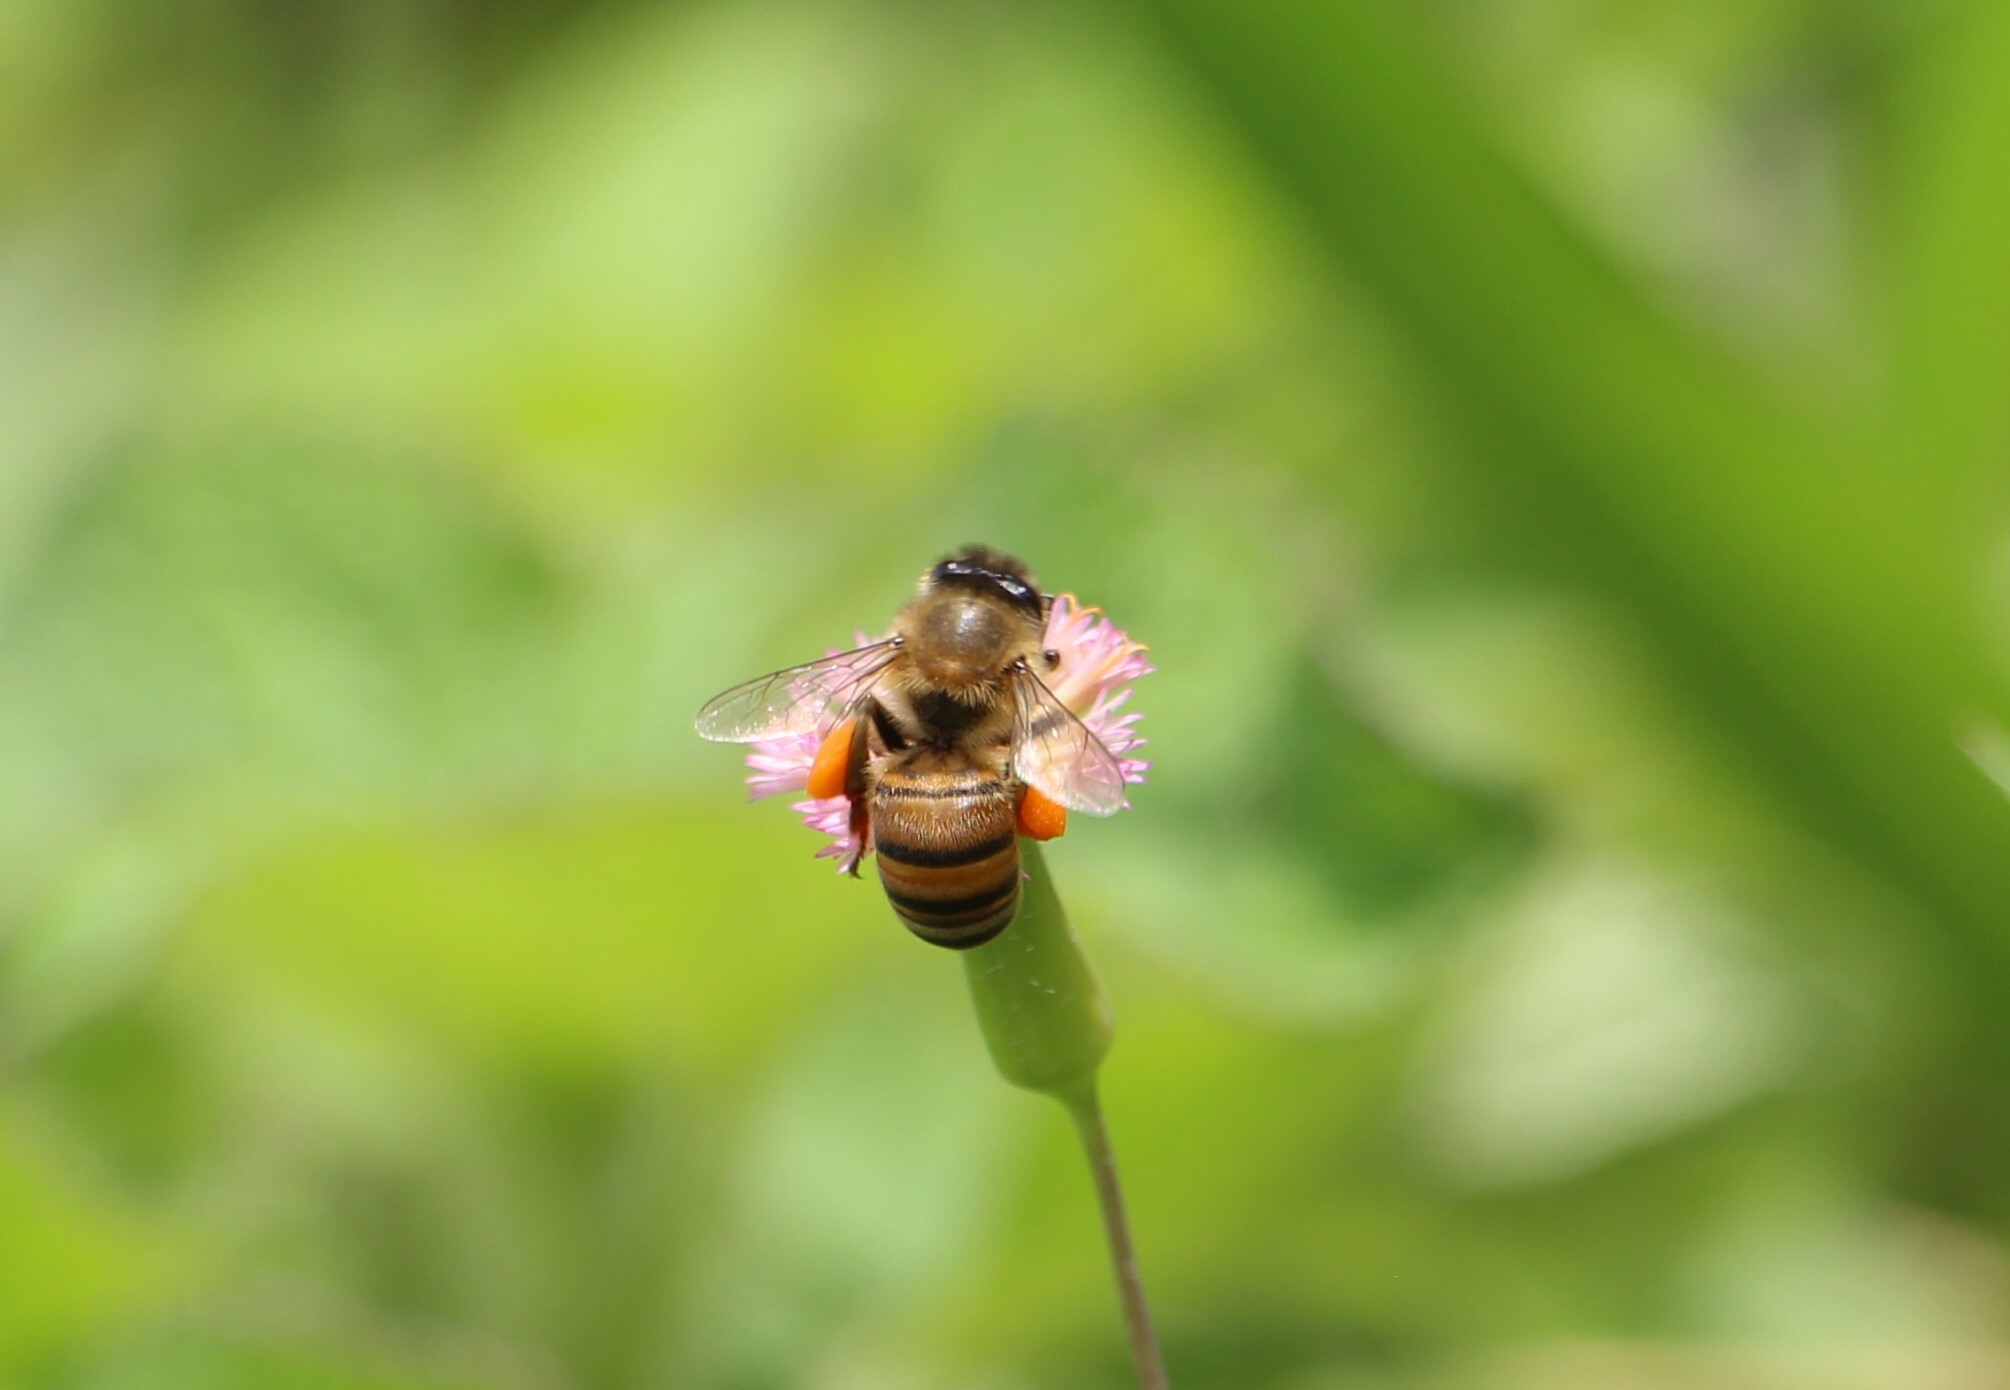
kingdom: Animalia
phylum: Arthropoda
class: Insecta
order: Hymenoptera
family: Apidae
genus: Apis
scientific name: Apis mellifera
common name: Honey bee
